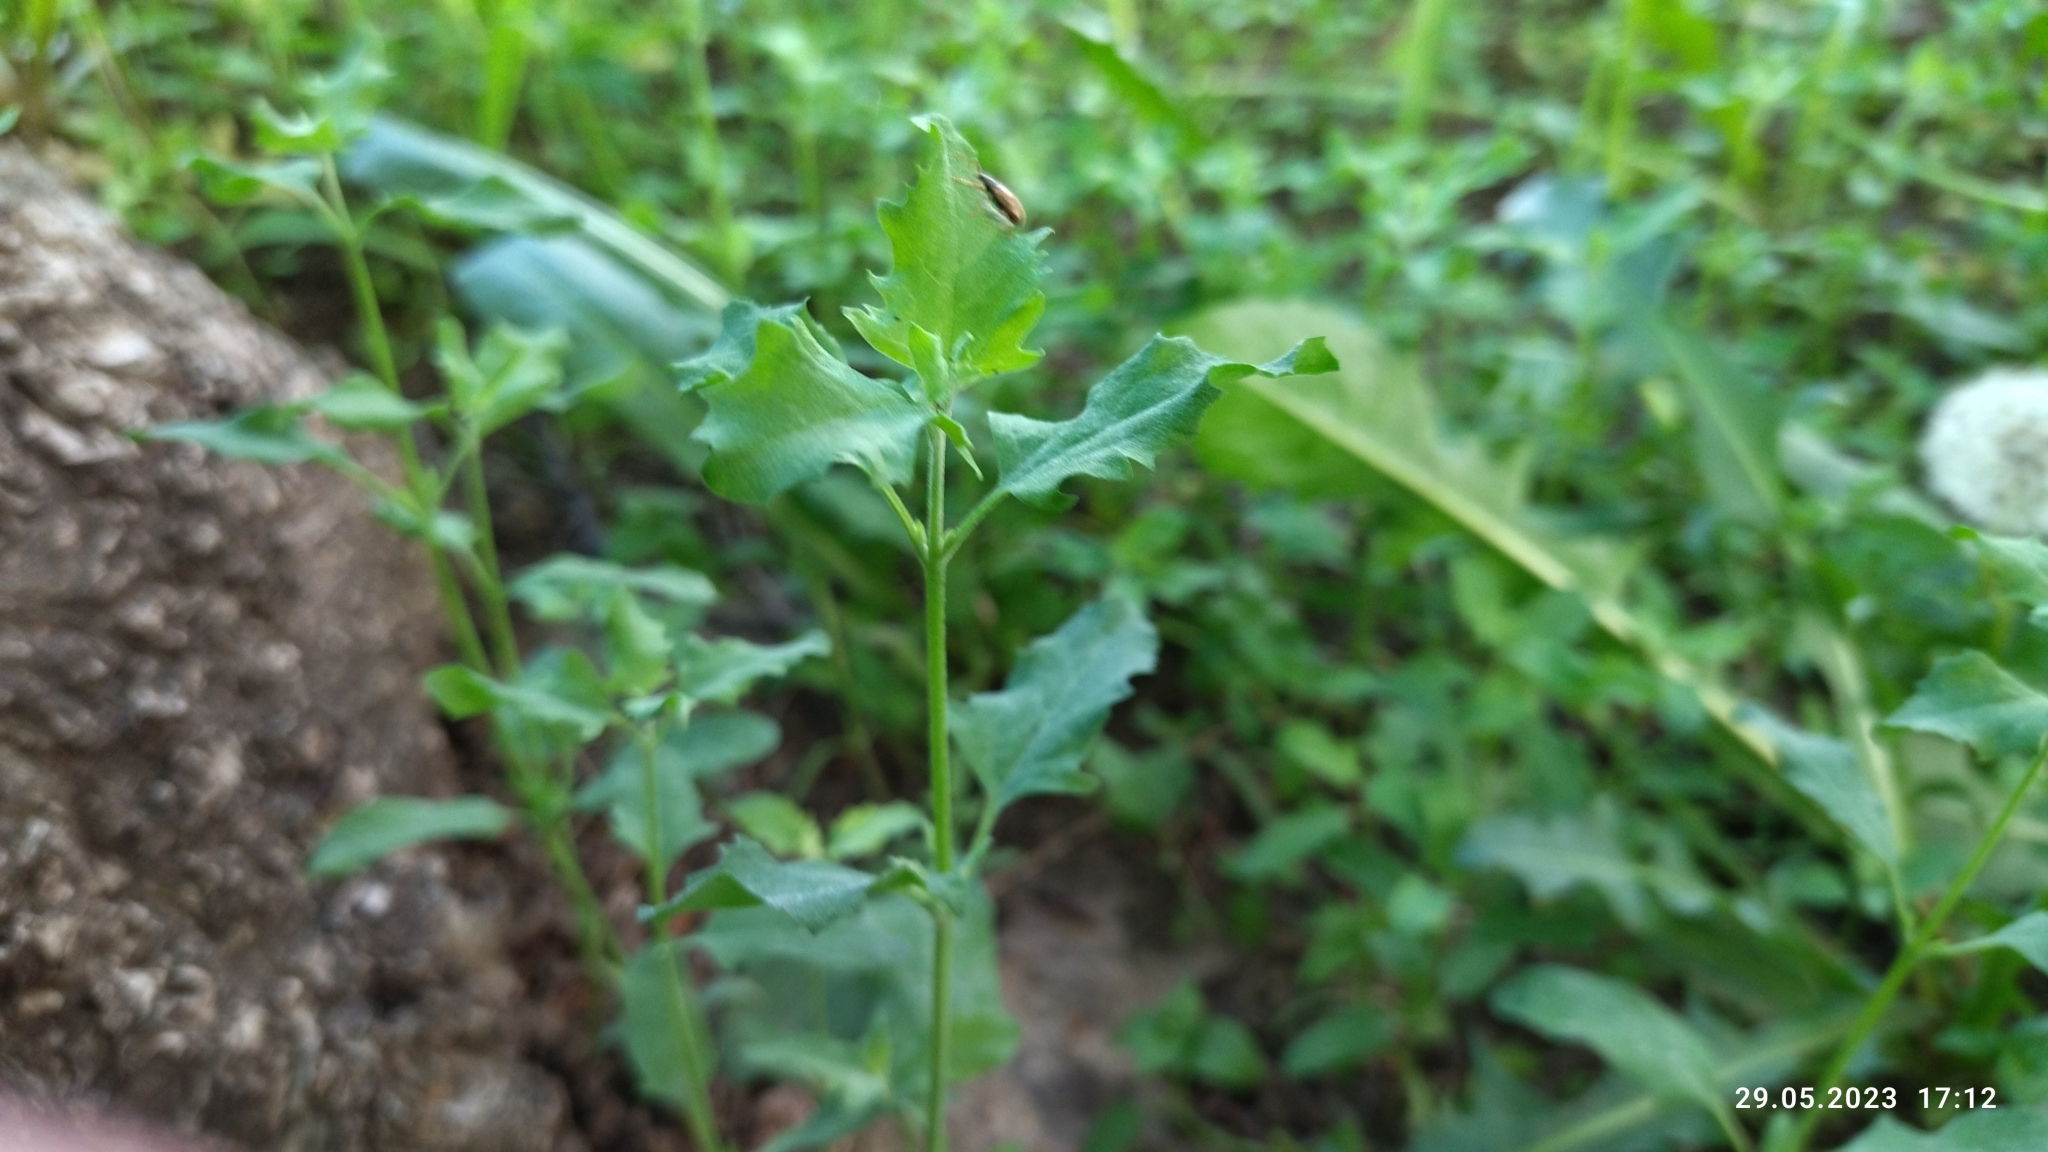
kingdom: Plantae
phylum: Tracheophyta
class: Magnoliopsida
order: Caryophyllales
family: Amaranthaceae
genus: Atriplex
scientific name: Atriplex patula
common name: Common orache
